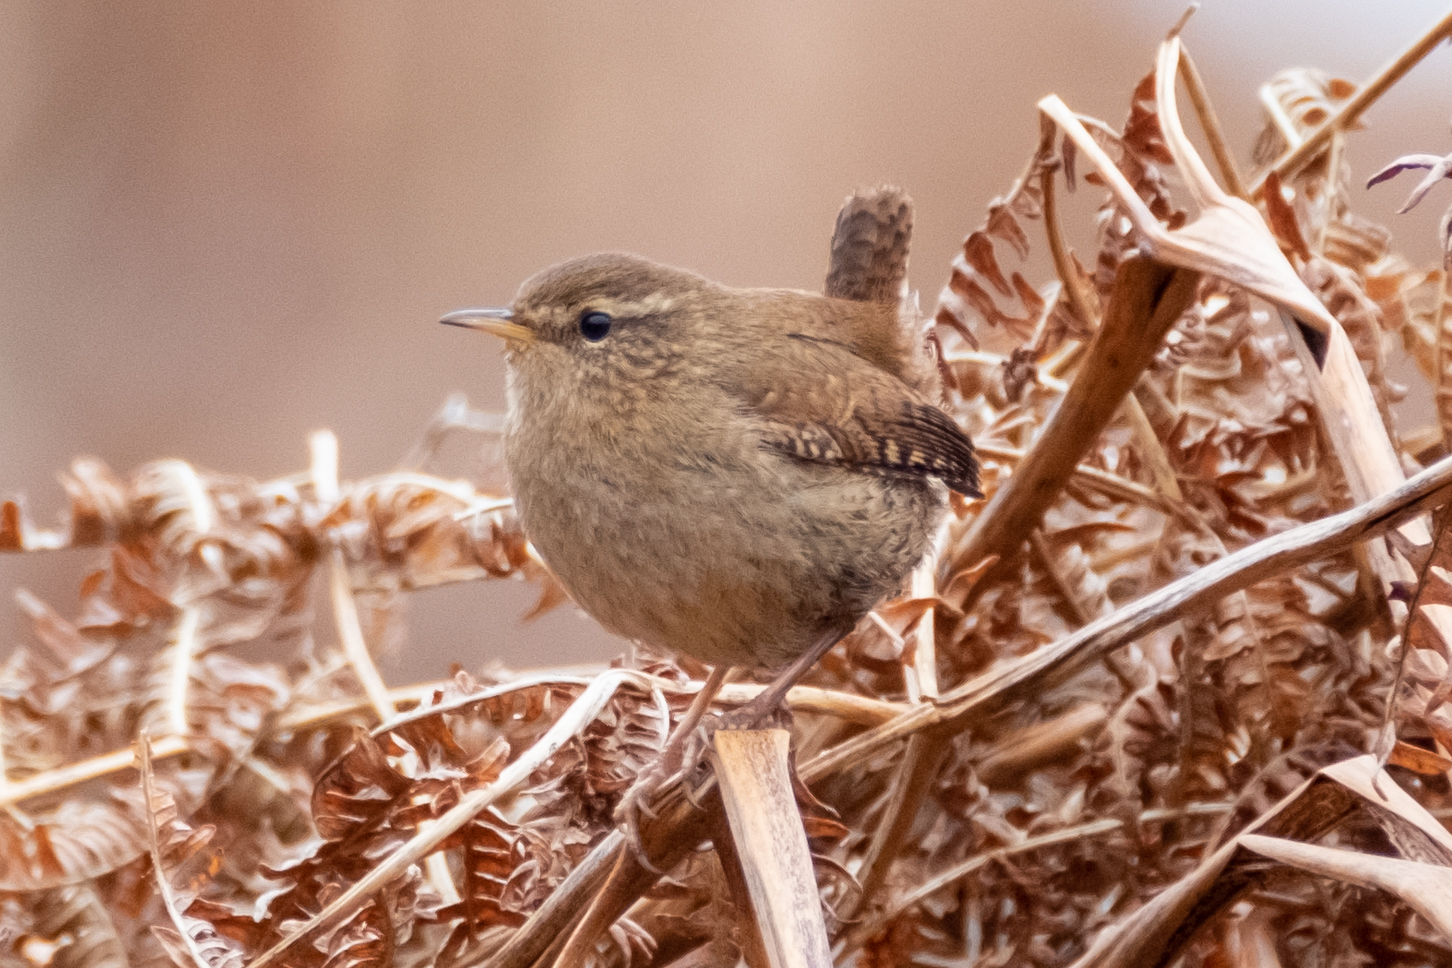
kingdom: Animalia
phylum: Chordata
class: Aves
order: Passeriformes
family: Troglodytidae
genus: Troglodytes
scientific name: Troglodytes troglodytes
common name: Eurasian wren
